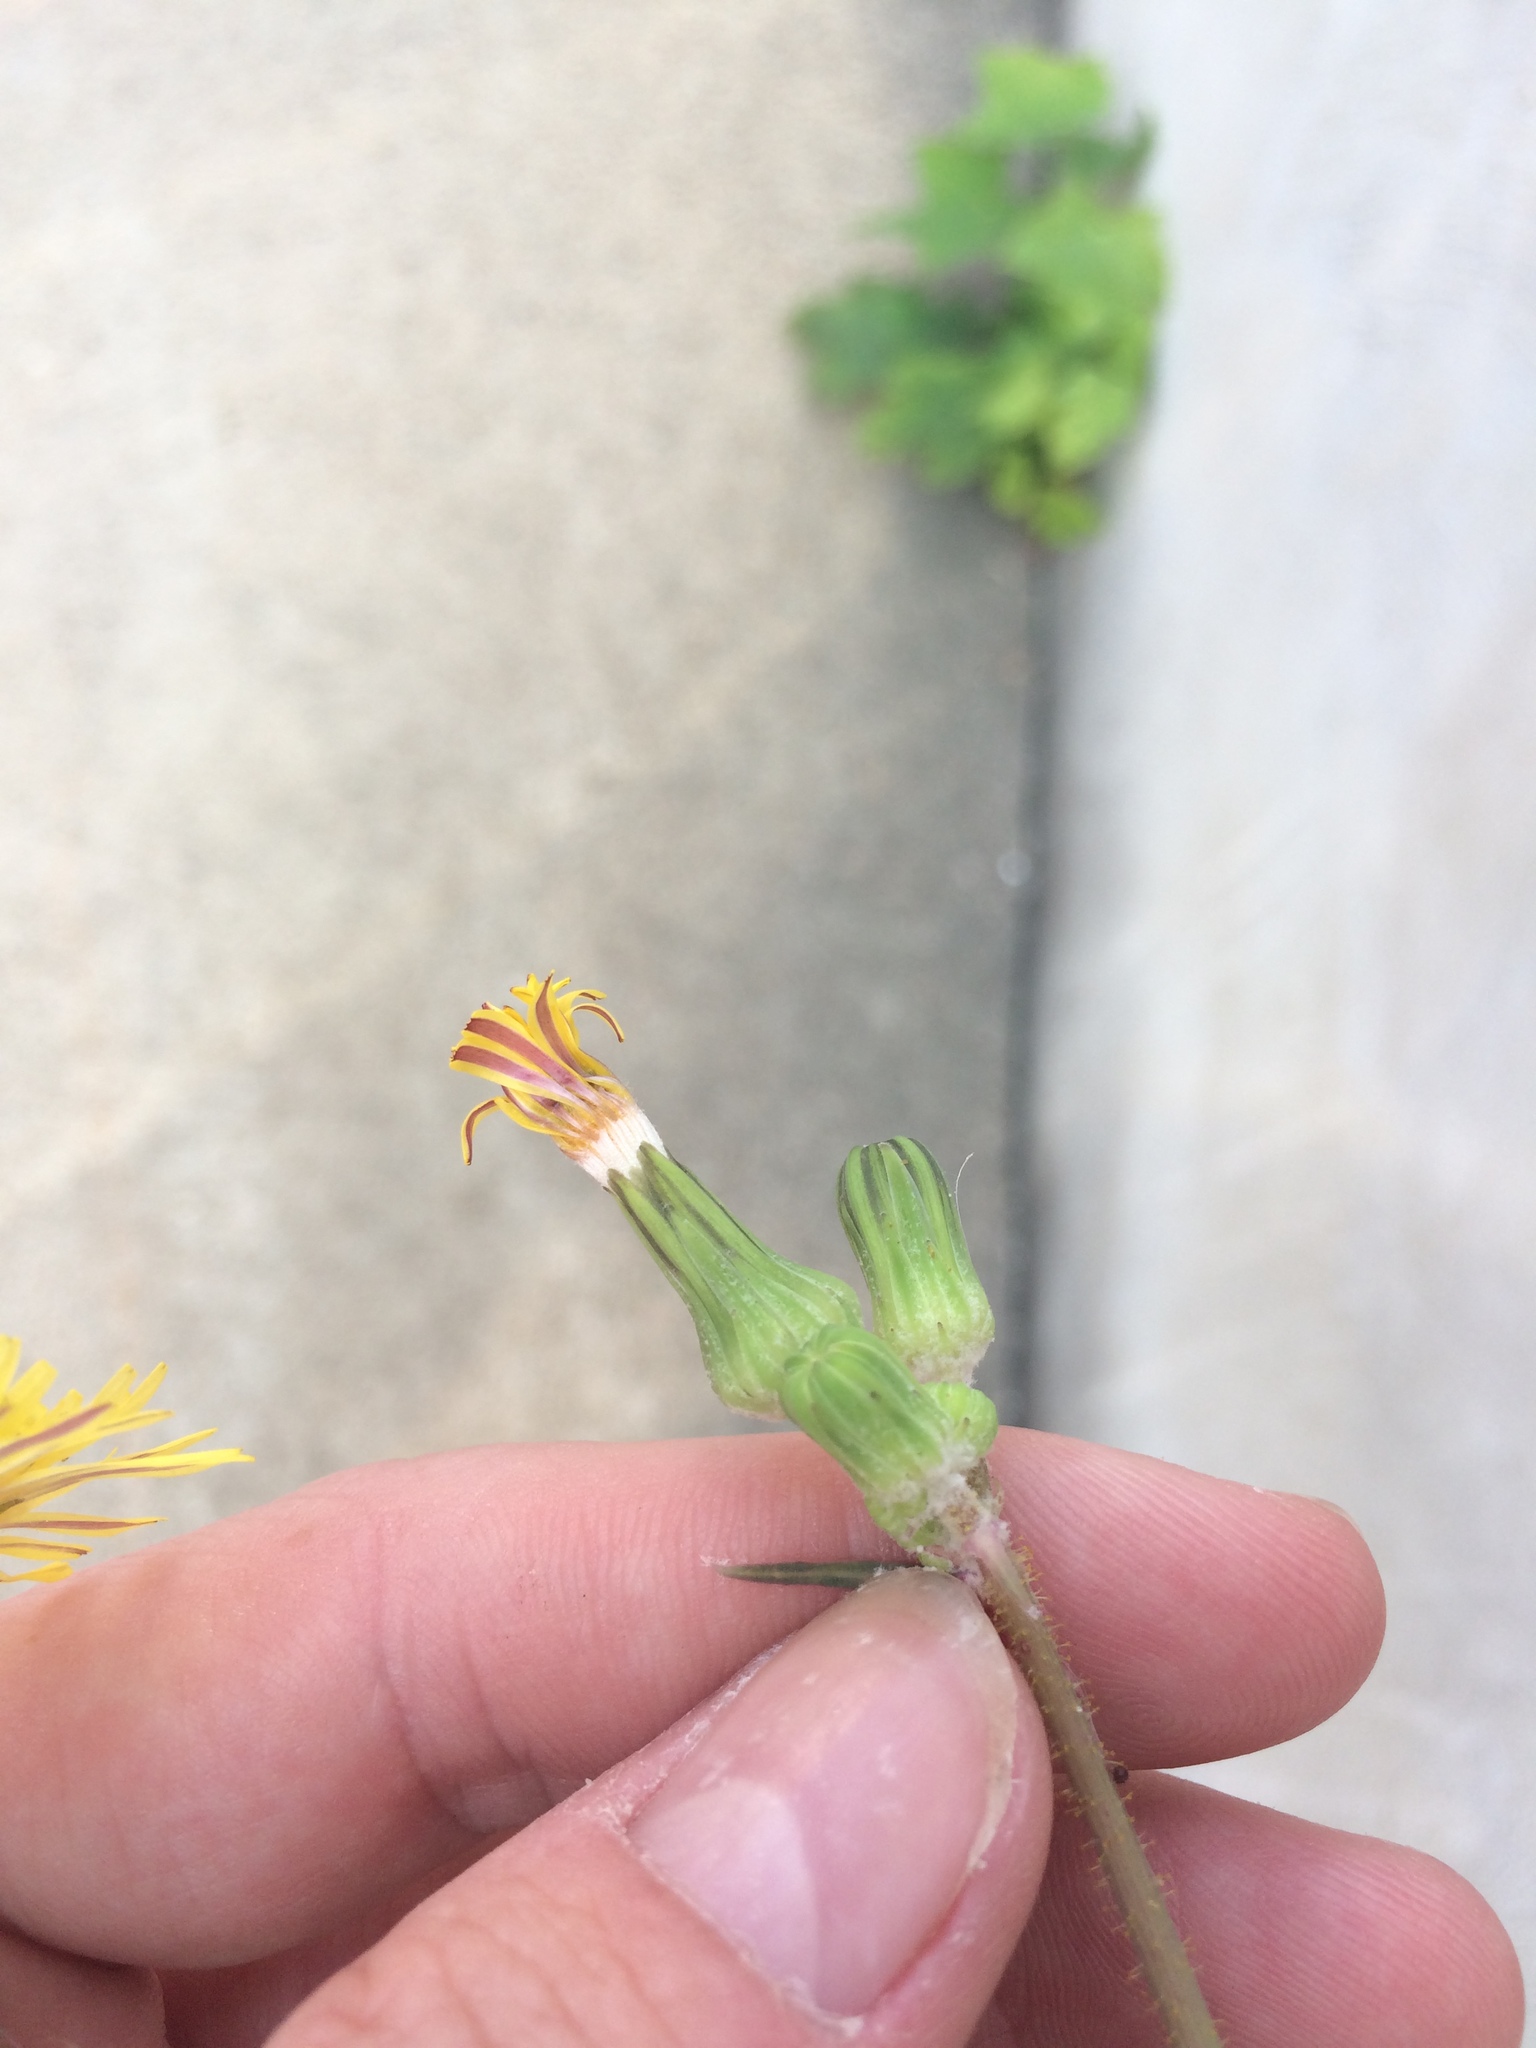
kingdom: Plantae
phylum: Tracheophyta
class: Magnoliopsida
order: Asterales
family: Asteraceae
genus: Sonchus
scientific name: Sonchus oleraceus
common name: Common sowthistle
